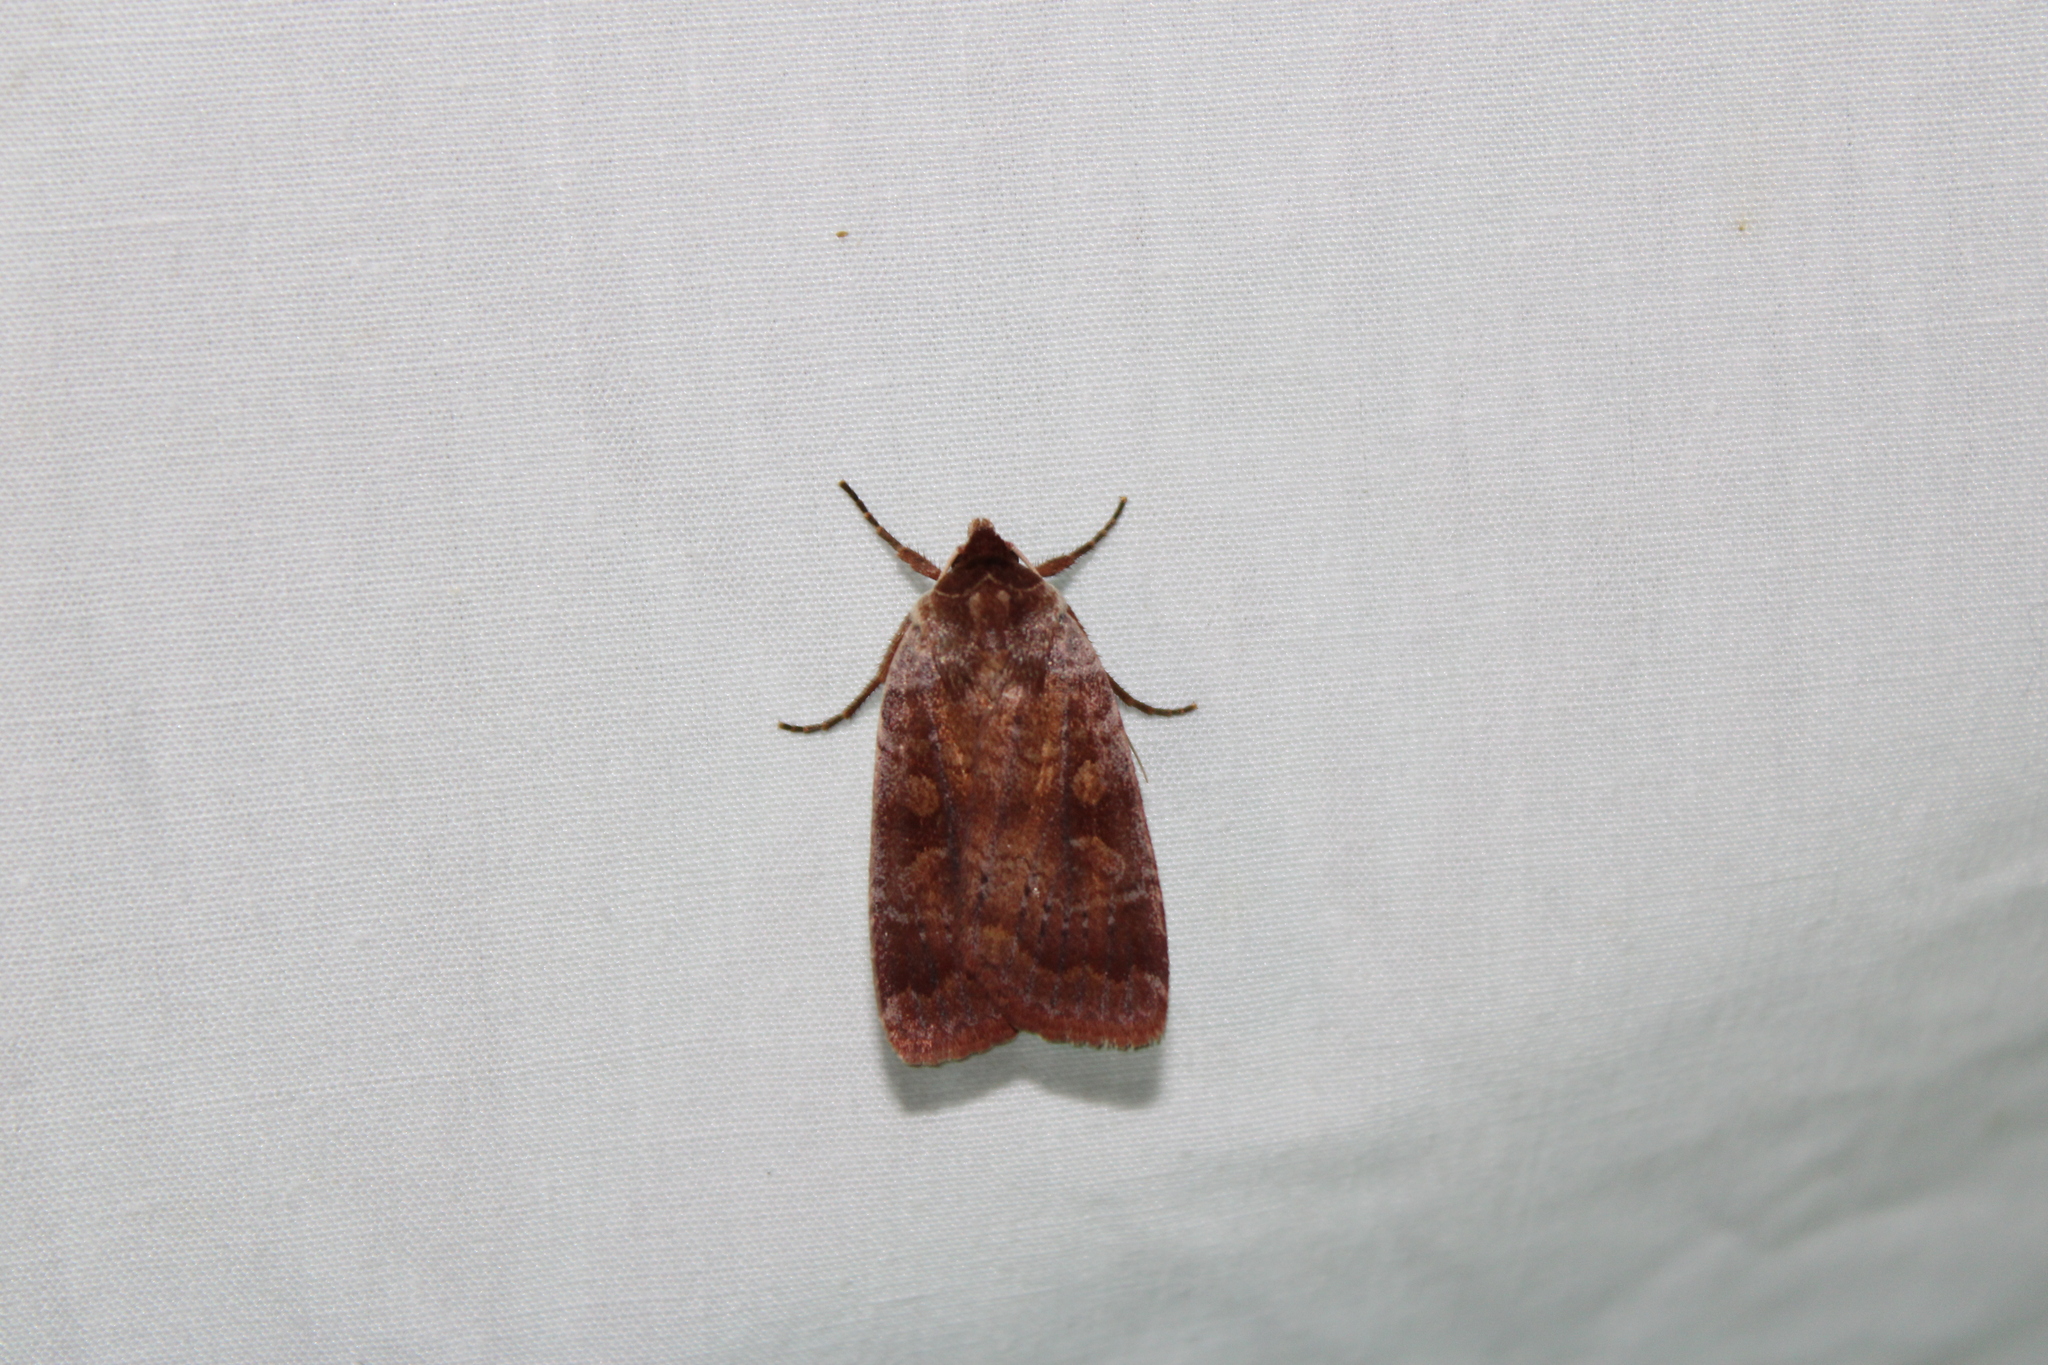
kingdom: Animalia
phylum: Arthropoda
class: Insecta
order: Lepidoptera
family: Noctuidae
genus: Lycophotia
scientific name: Lycophotia phyllophora
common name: Lycophotia moth
